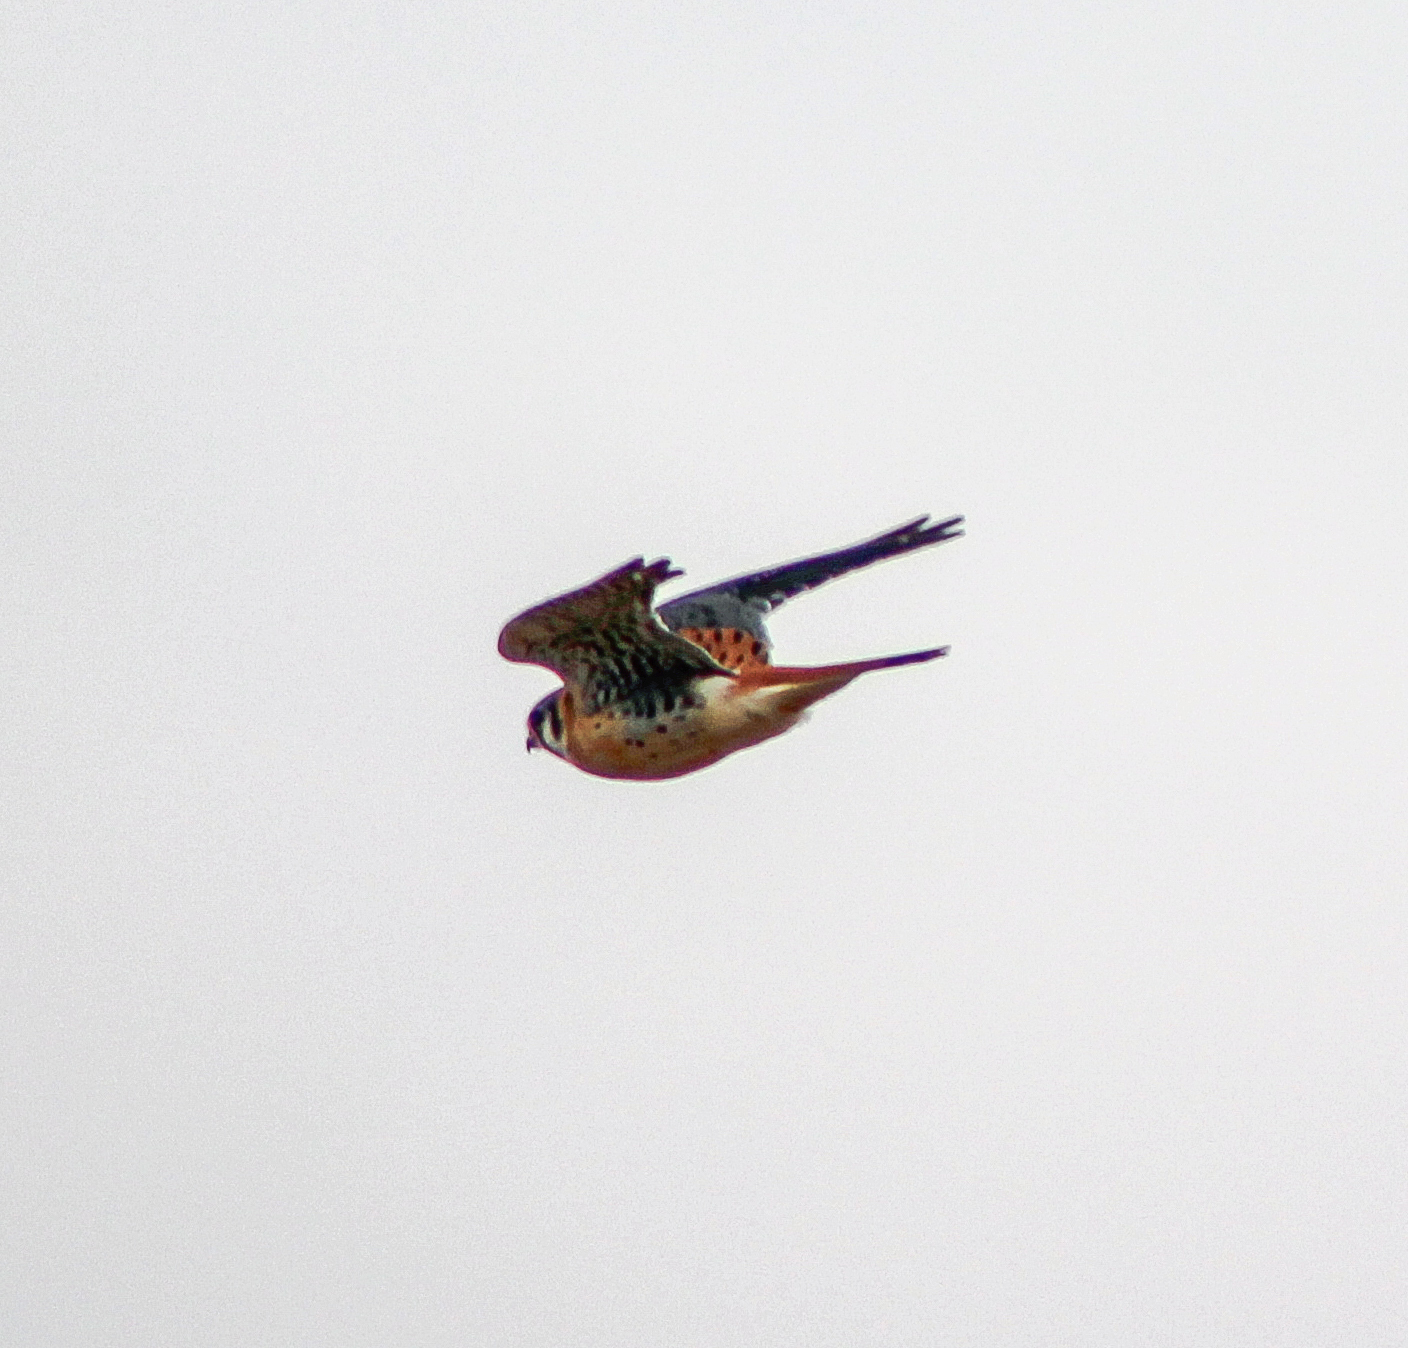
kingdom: Animalia
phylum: Chordata
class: Aves
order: Falconiformes
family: Falconidae
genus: Falco
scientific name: Falco sparverius
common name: American kestrel
